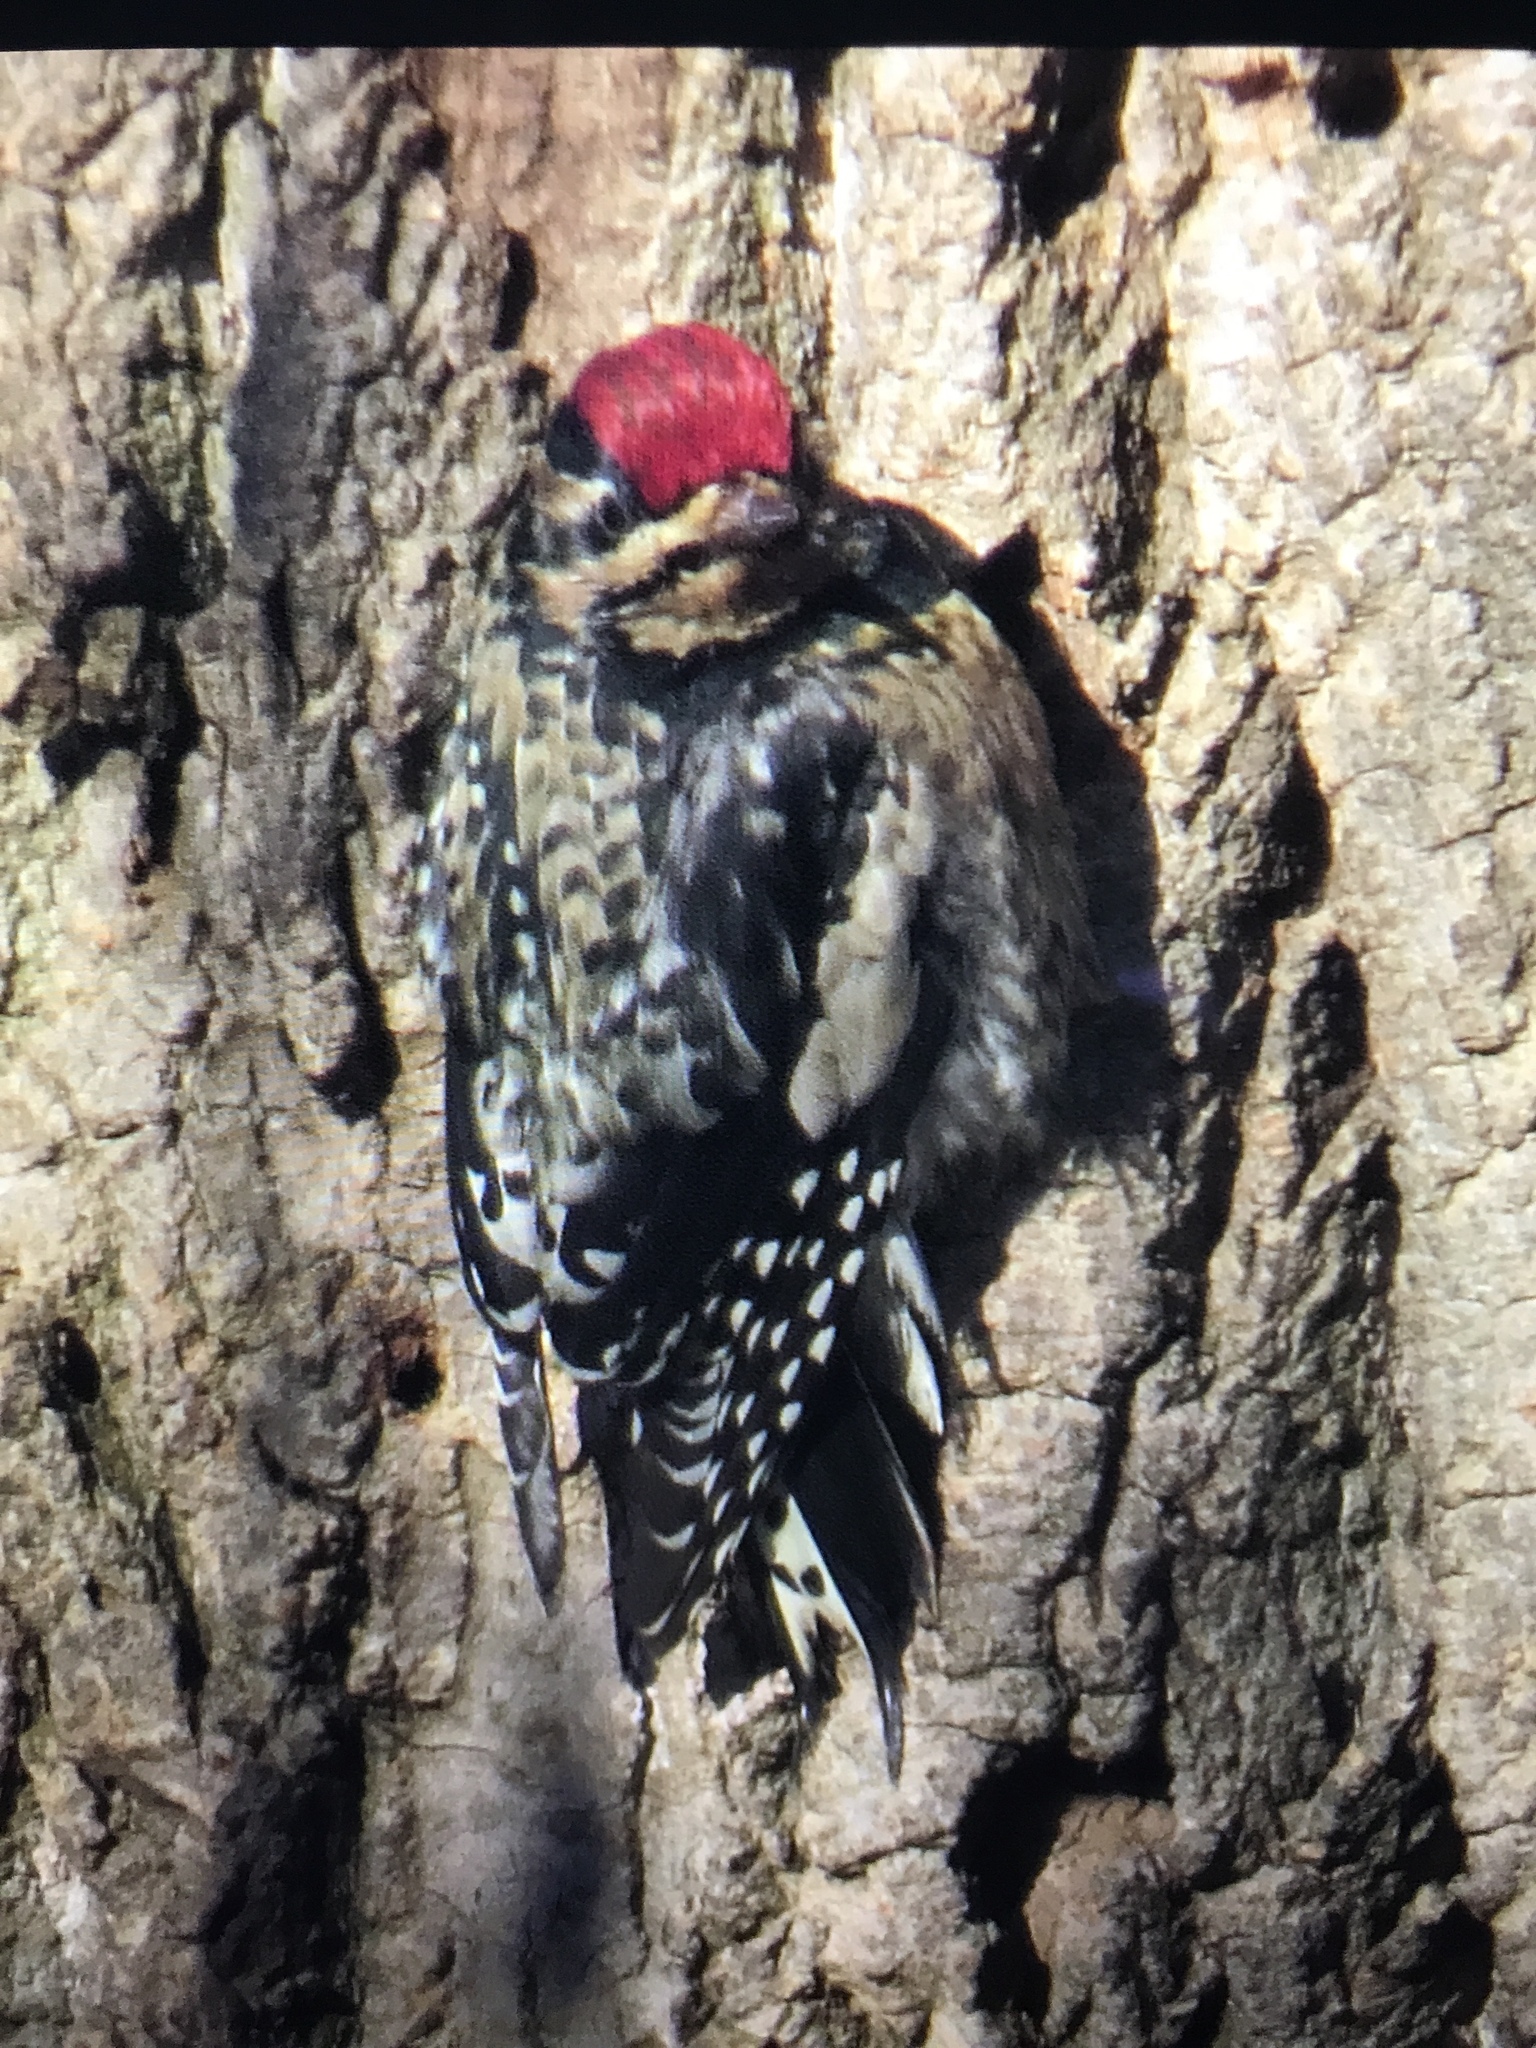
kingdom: Animalia
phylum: Chordata
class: Aves
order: Piciformes
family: Picidae
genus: Sphyrapicus
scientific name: Sphyrapicus varius
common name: Yellow-bellied sapsucker
